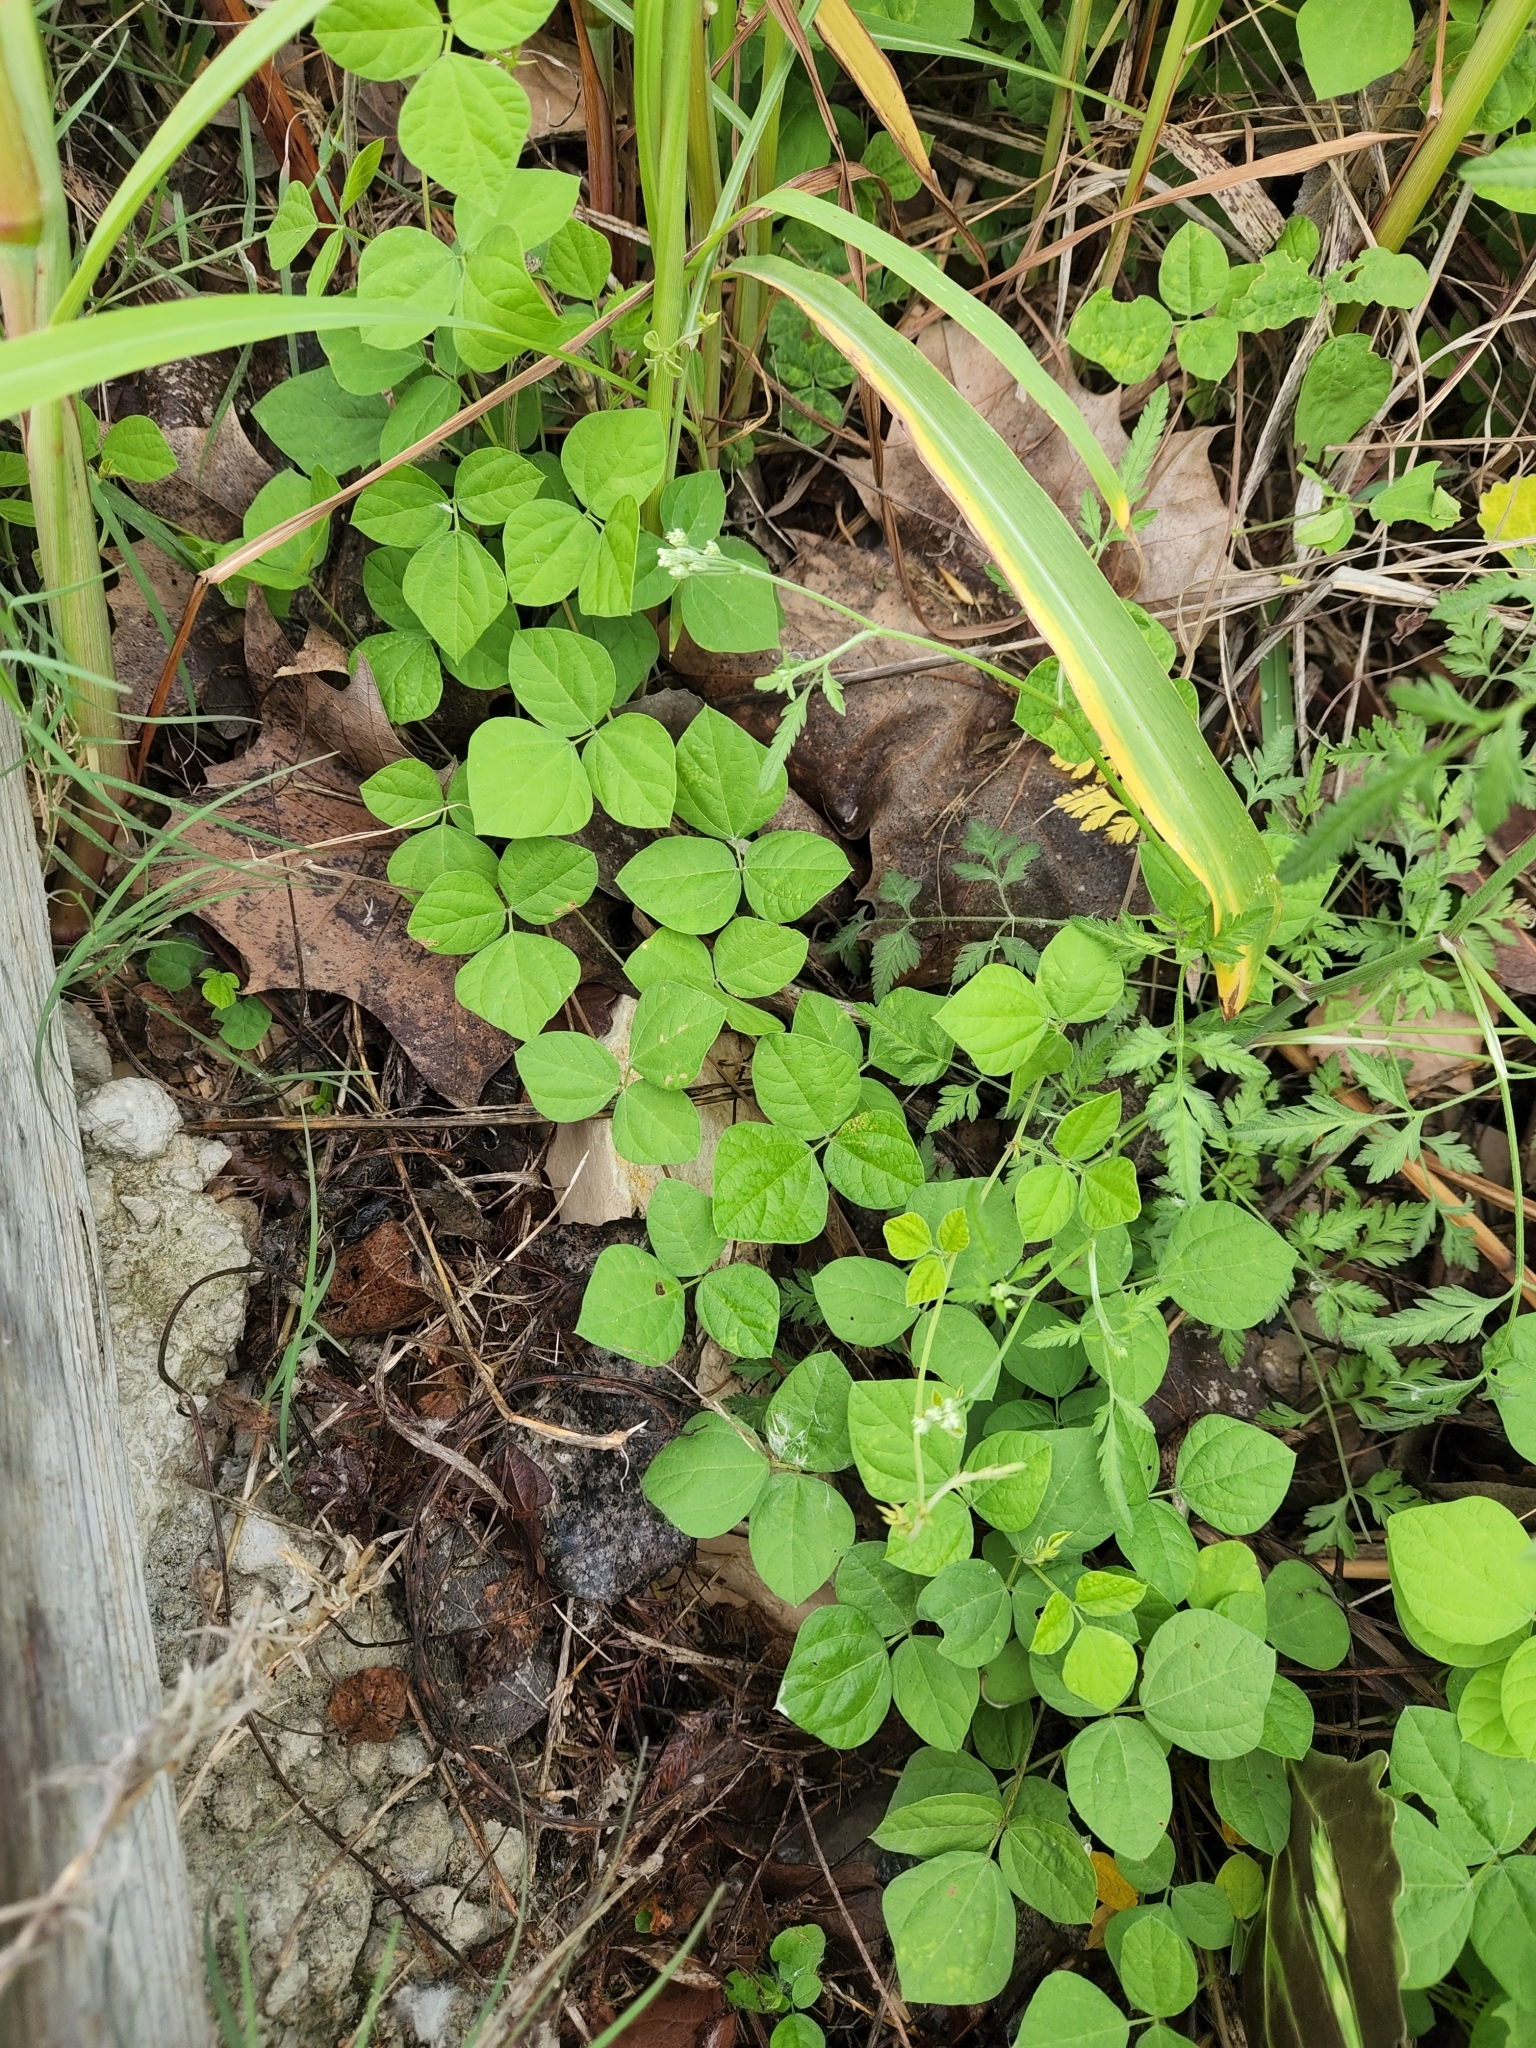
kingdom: Plantae
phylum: Tracheophyta
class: Magnoliopsida
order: Fabales
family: Fabaceae
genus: Rhynchosia
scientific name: Rhynchosia minima
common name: Least snoutbean
